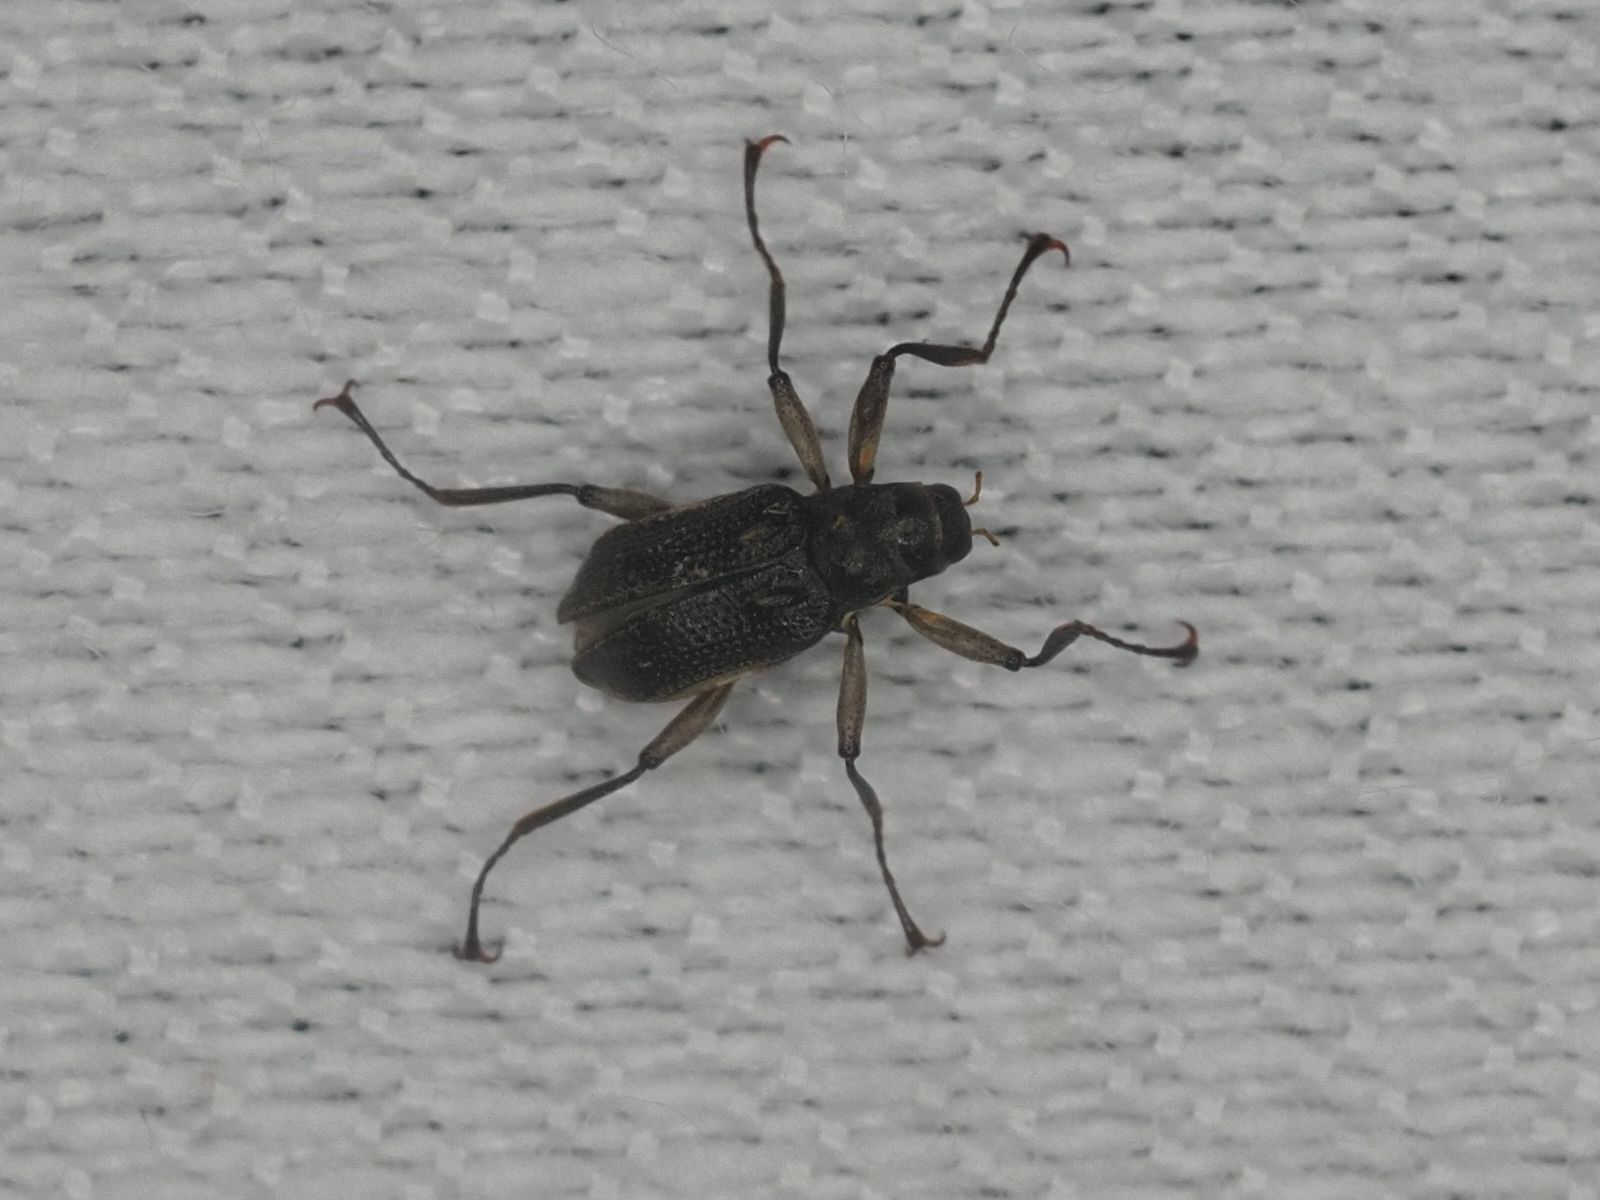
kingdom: Animalia
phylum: Arthropoda
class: Insecta
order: Coleoptera
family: Elmidae
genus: Macronychus
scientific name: Macronychus quadrituberculatus
